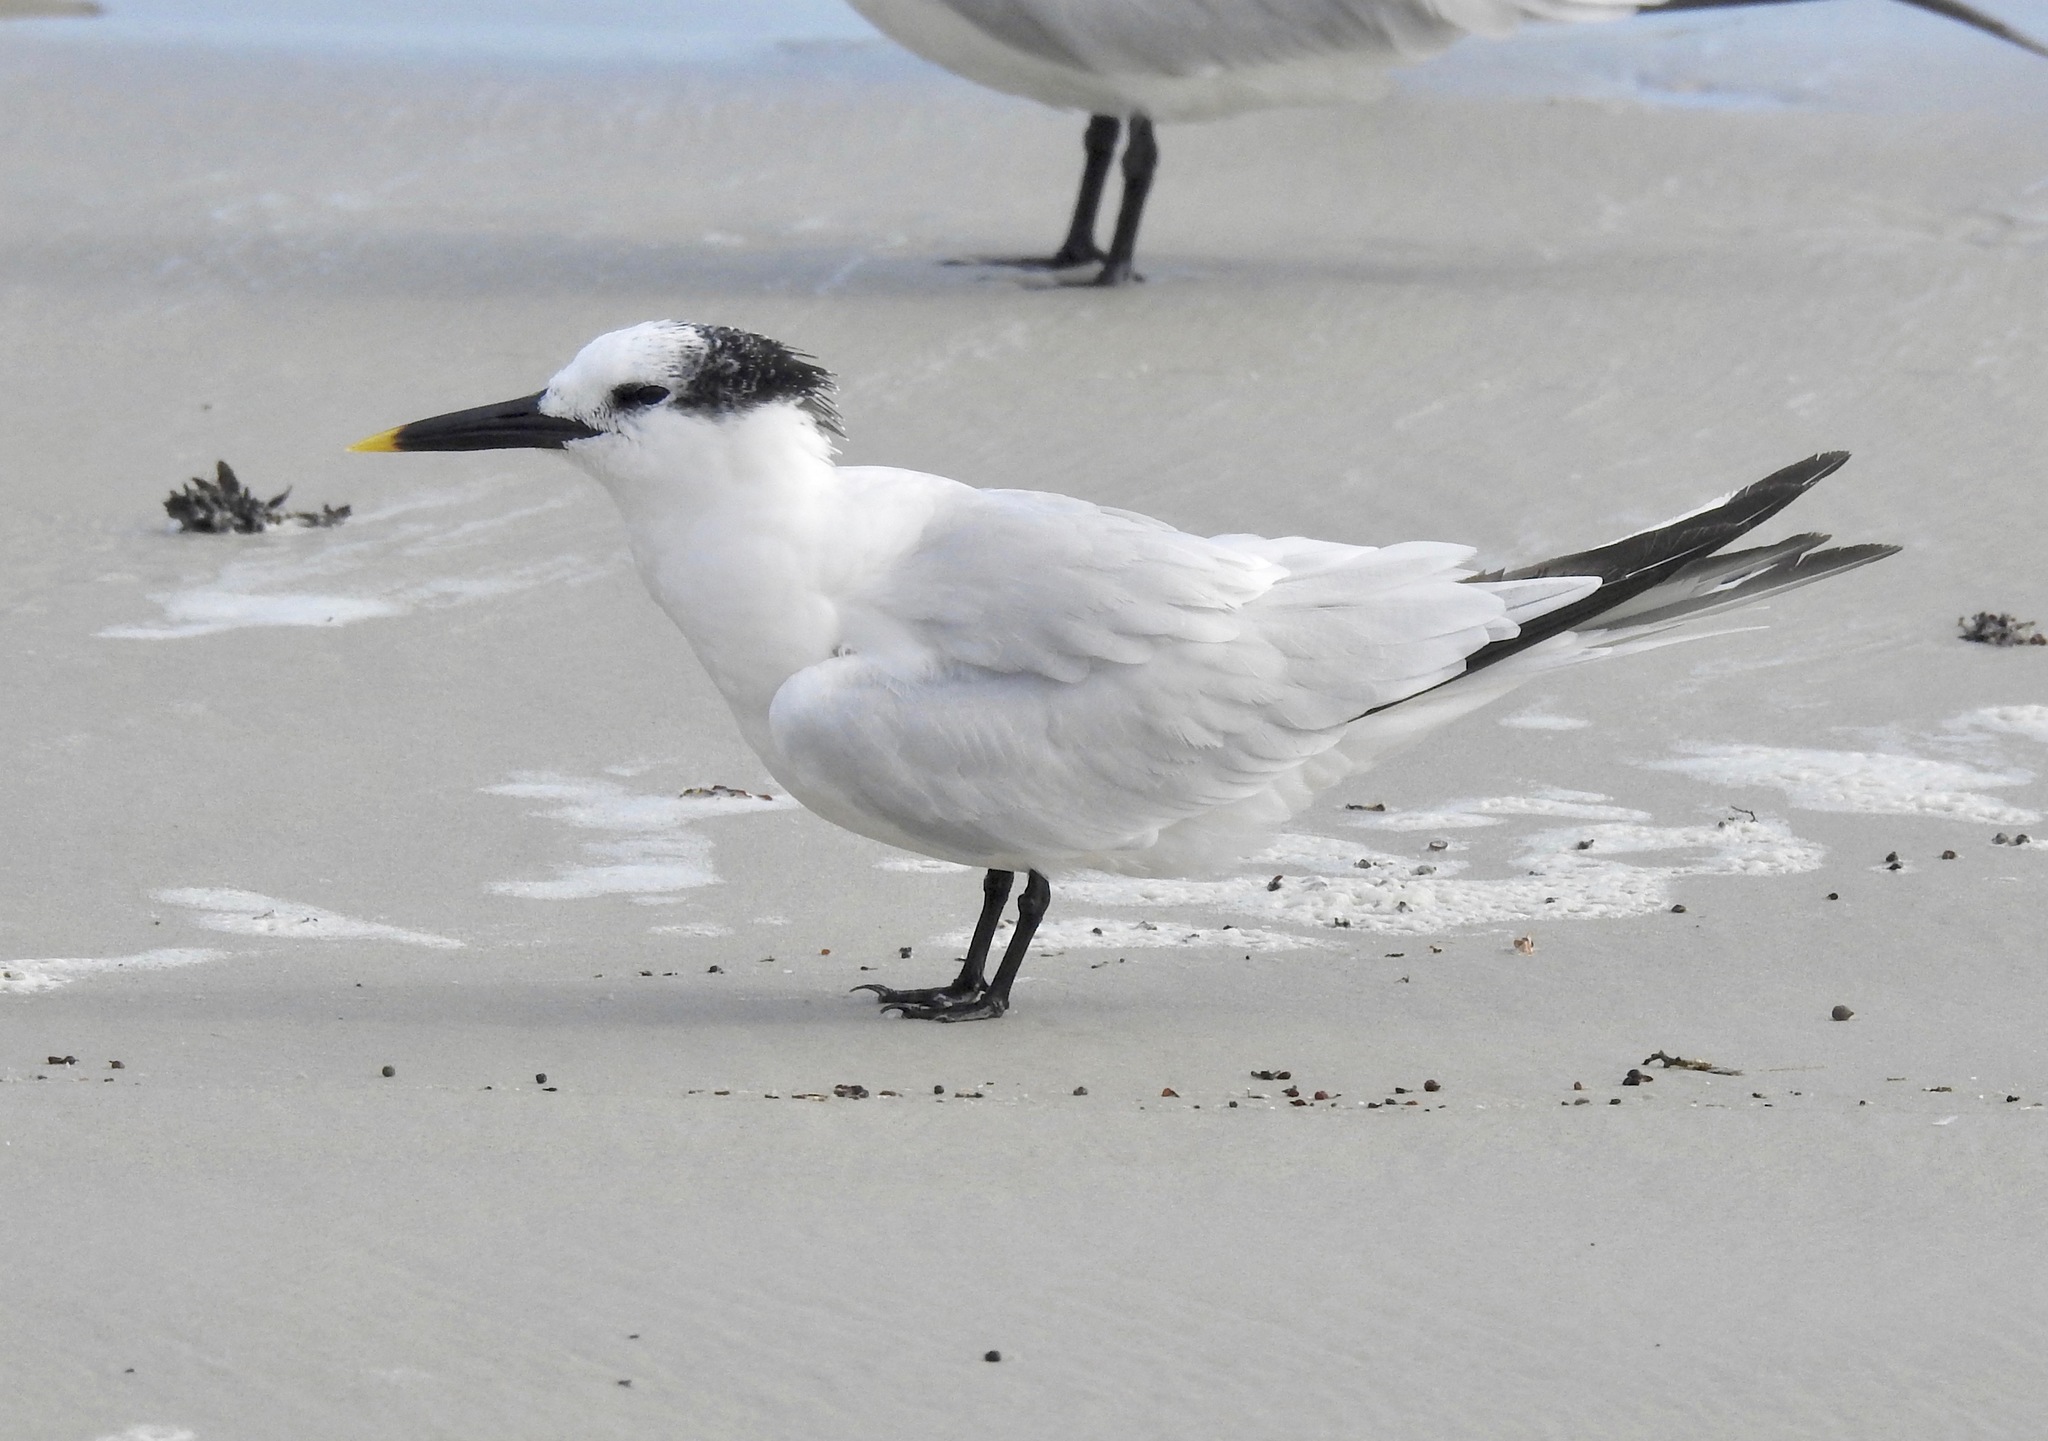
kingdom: Animalia
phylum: Chordata
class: Aves
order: Charadriiformes
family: Laridae
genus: Thalasseus
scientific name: Thalasseus sandvicensis
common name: Sandwich tern
